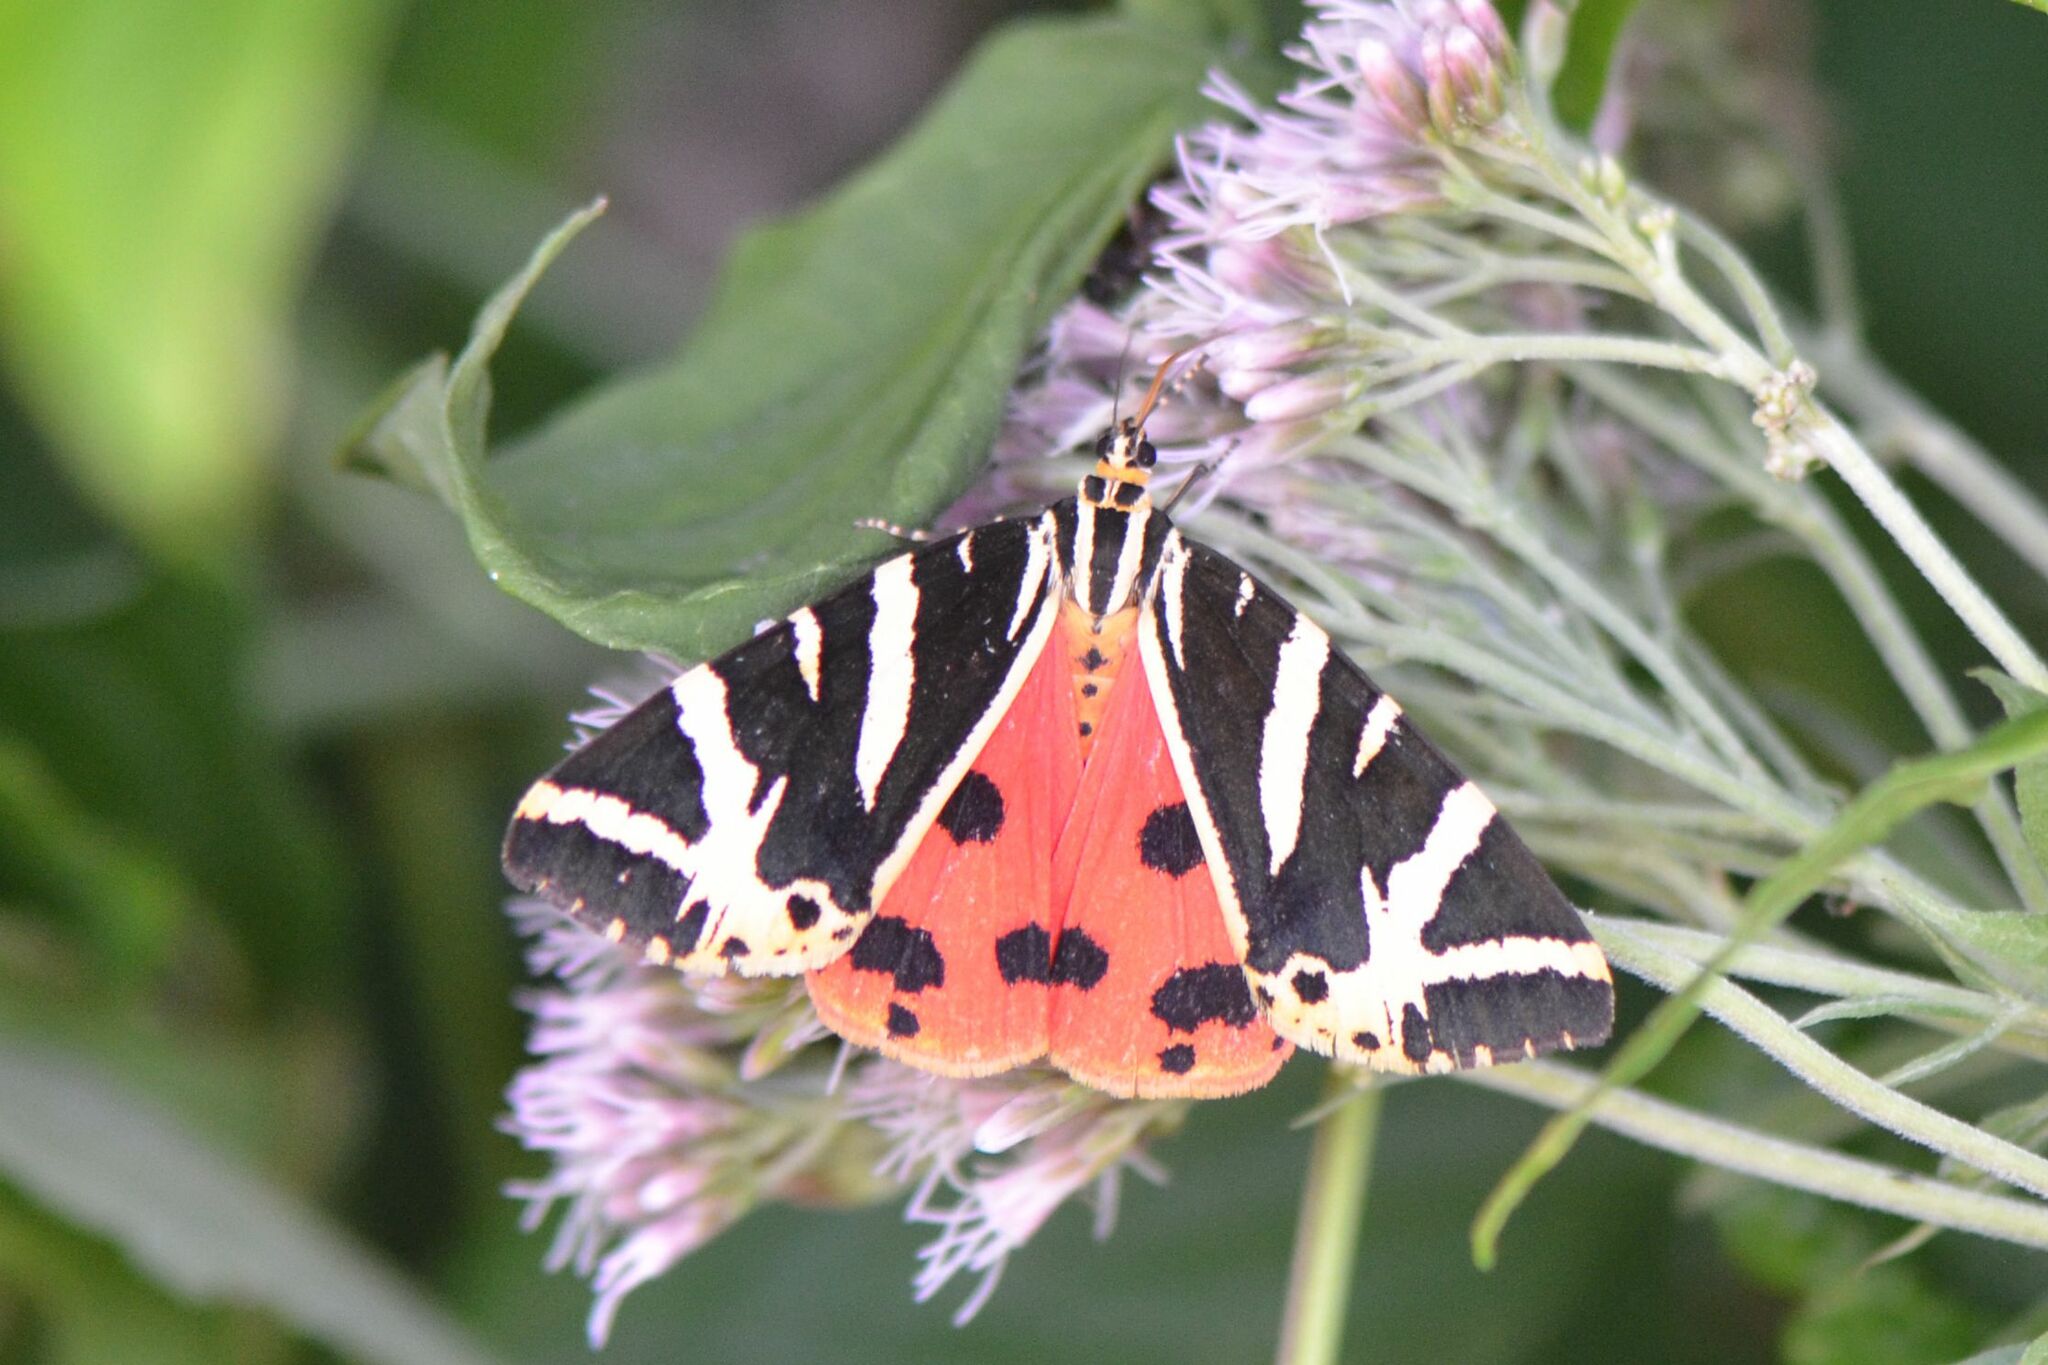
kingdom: Animalia
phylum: Arthropoda
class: Insecta
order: Lepidoptera
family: Erebidae
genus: Euplagia
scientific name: Euplagia quadripunctaria
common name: Jersey tiger
